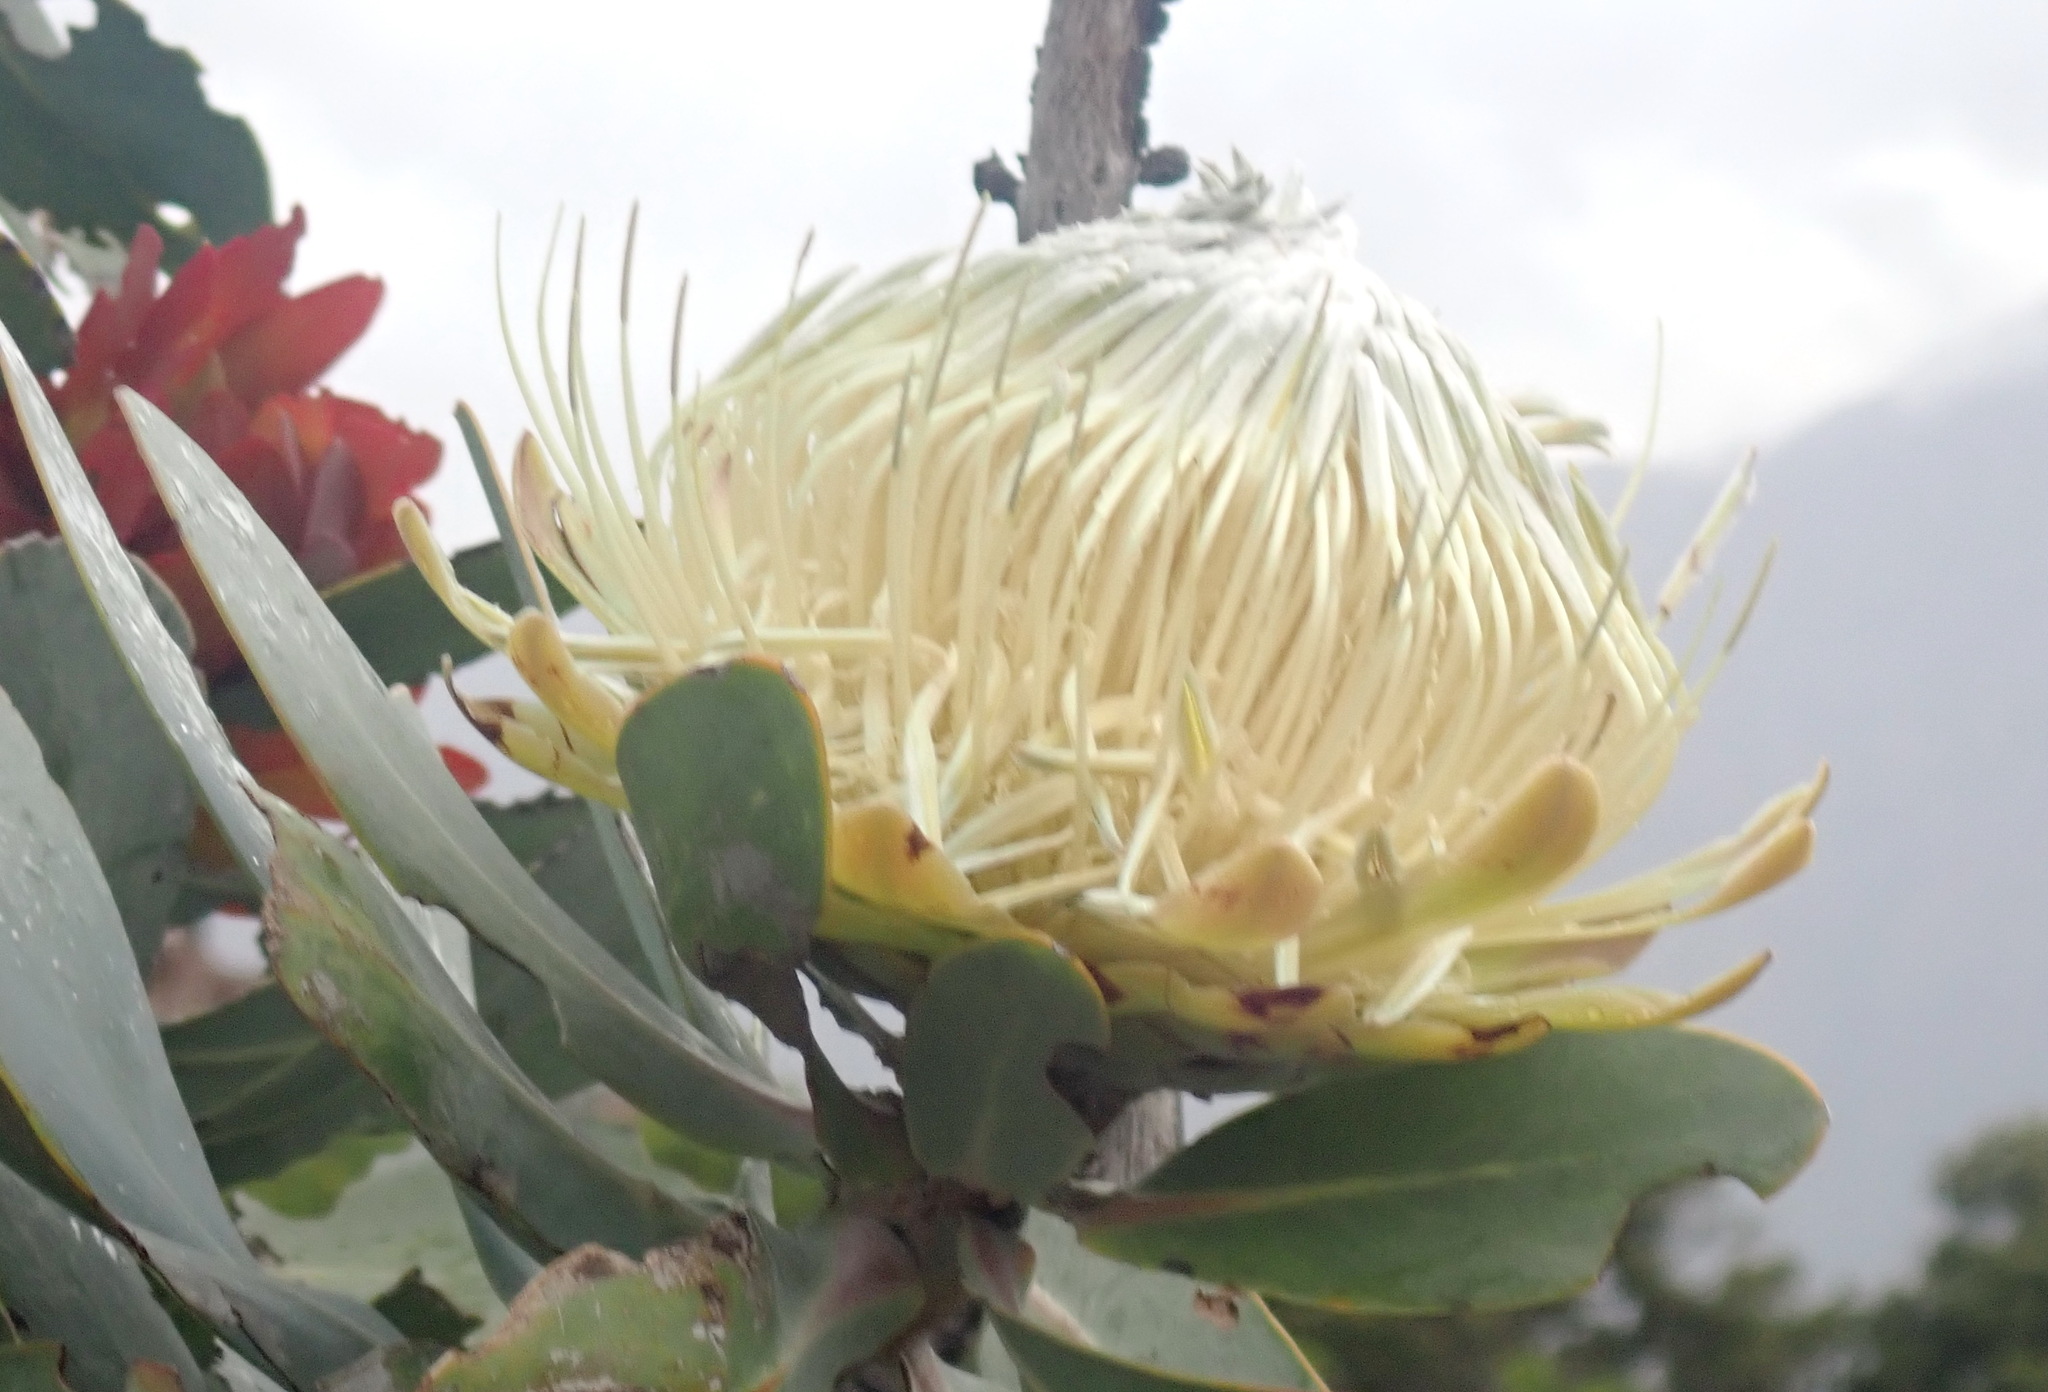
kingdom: Plantae
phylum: Tracheophyta
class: Magnoliopsida
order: Proteales
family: Proteaceae
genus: Protea
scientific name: Protea nitida
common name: Tree protea
